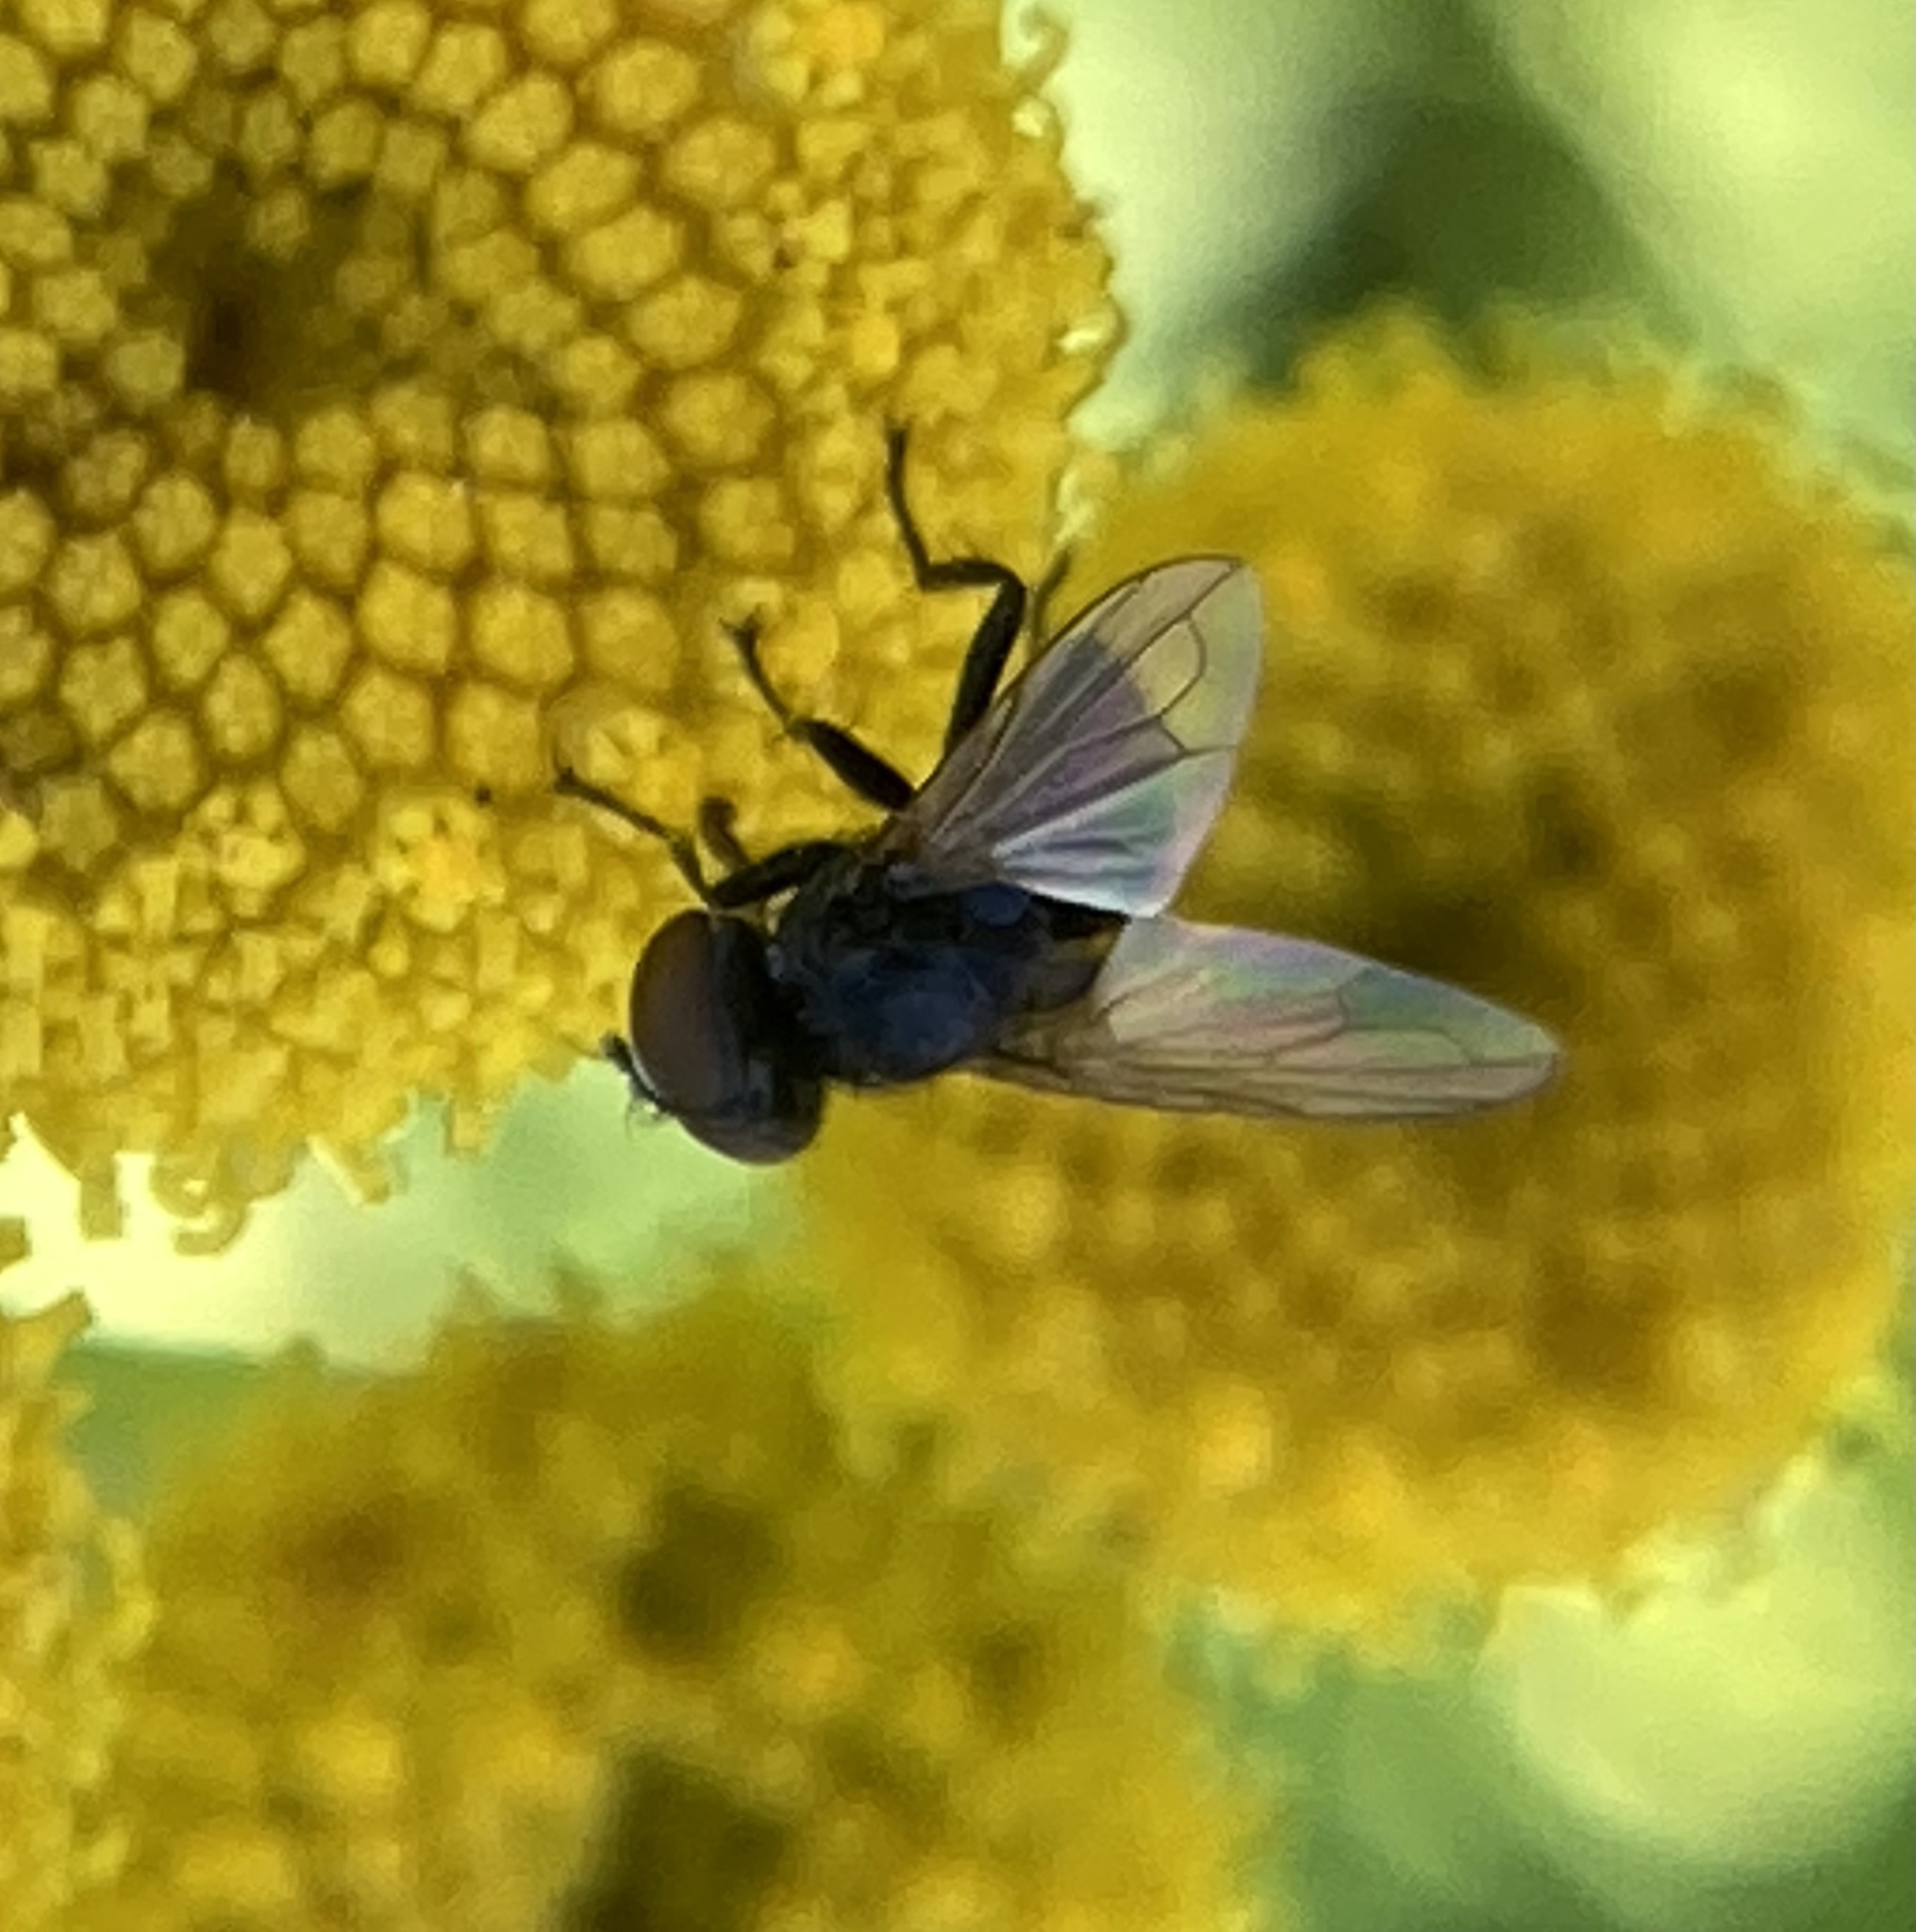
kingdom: Animalia
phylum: Arthropoda
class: Insecta
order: Diptera
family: Ulidiidae
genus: Physiphora
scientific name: Physiphora alceae
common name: Picture-winged fly
